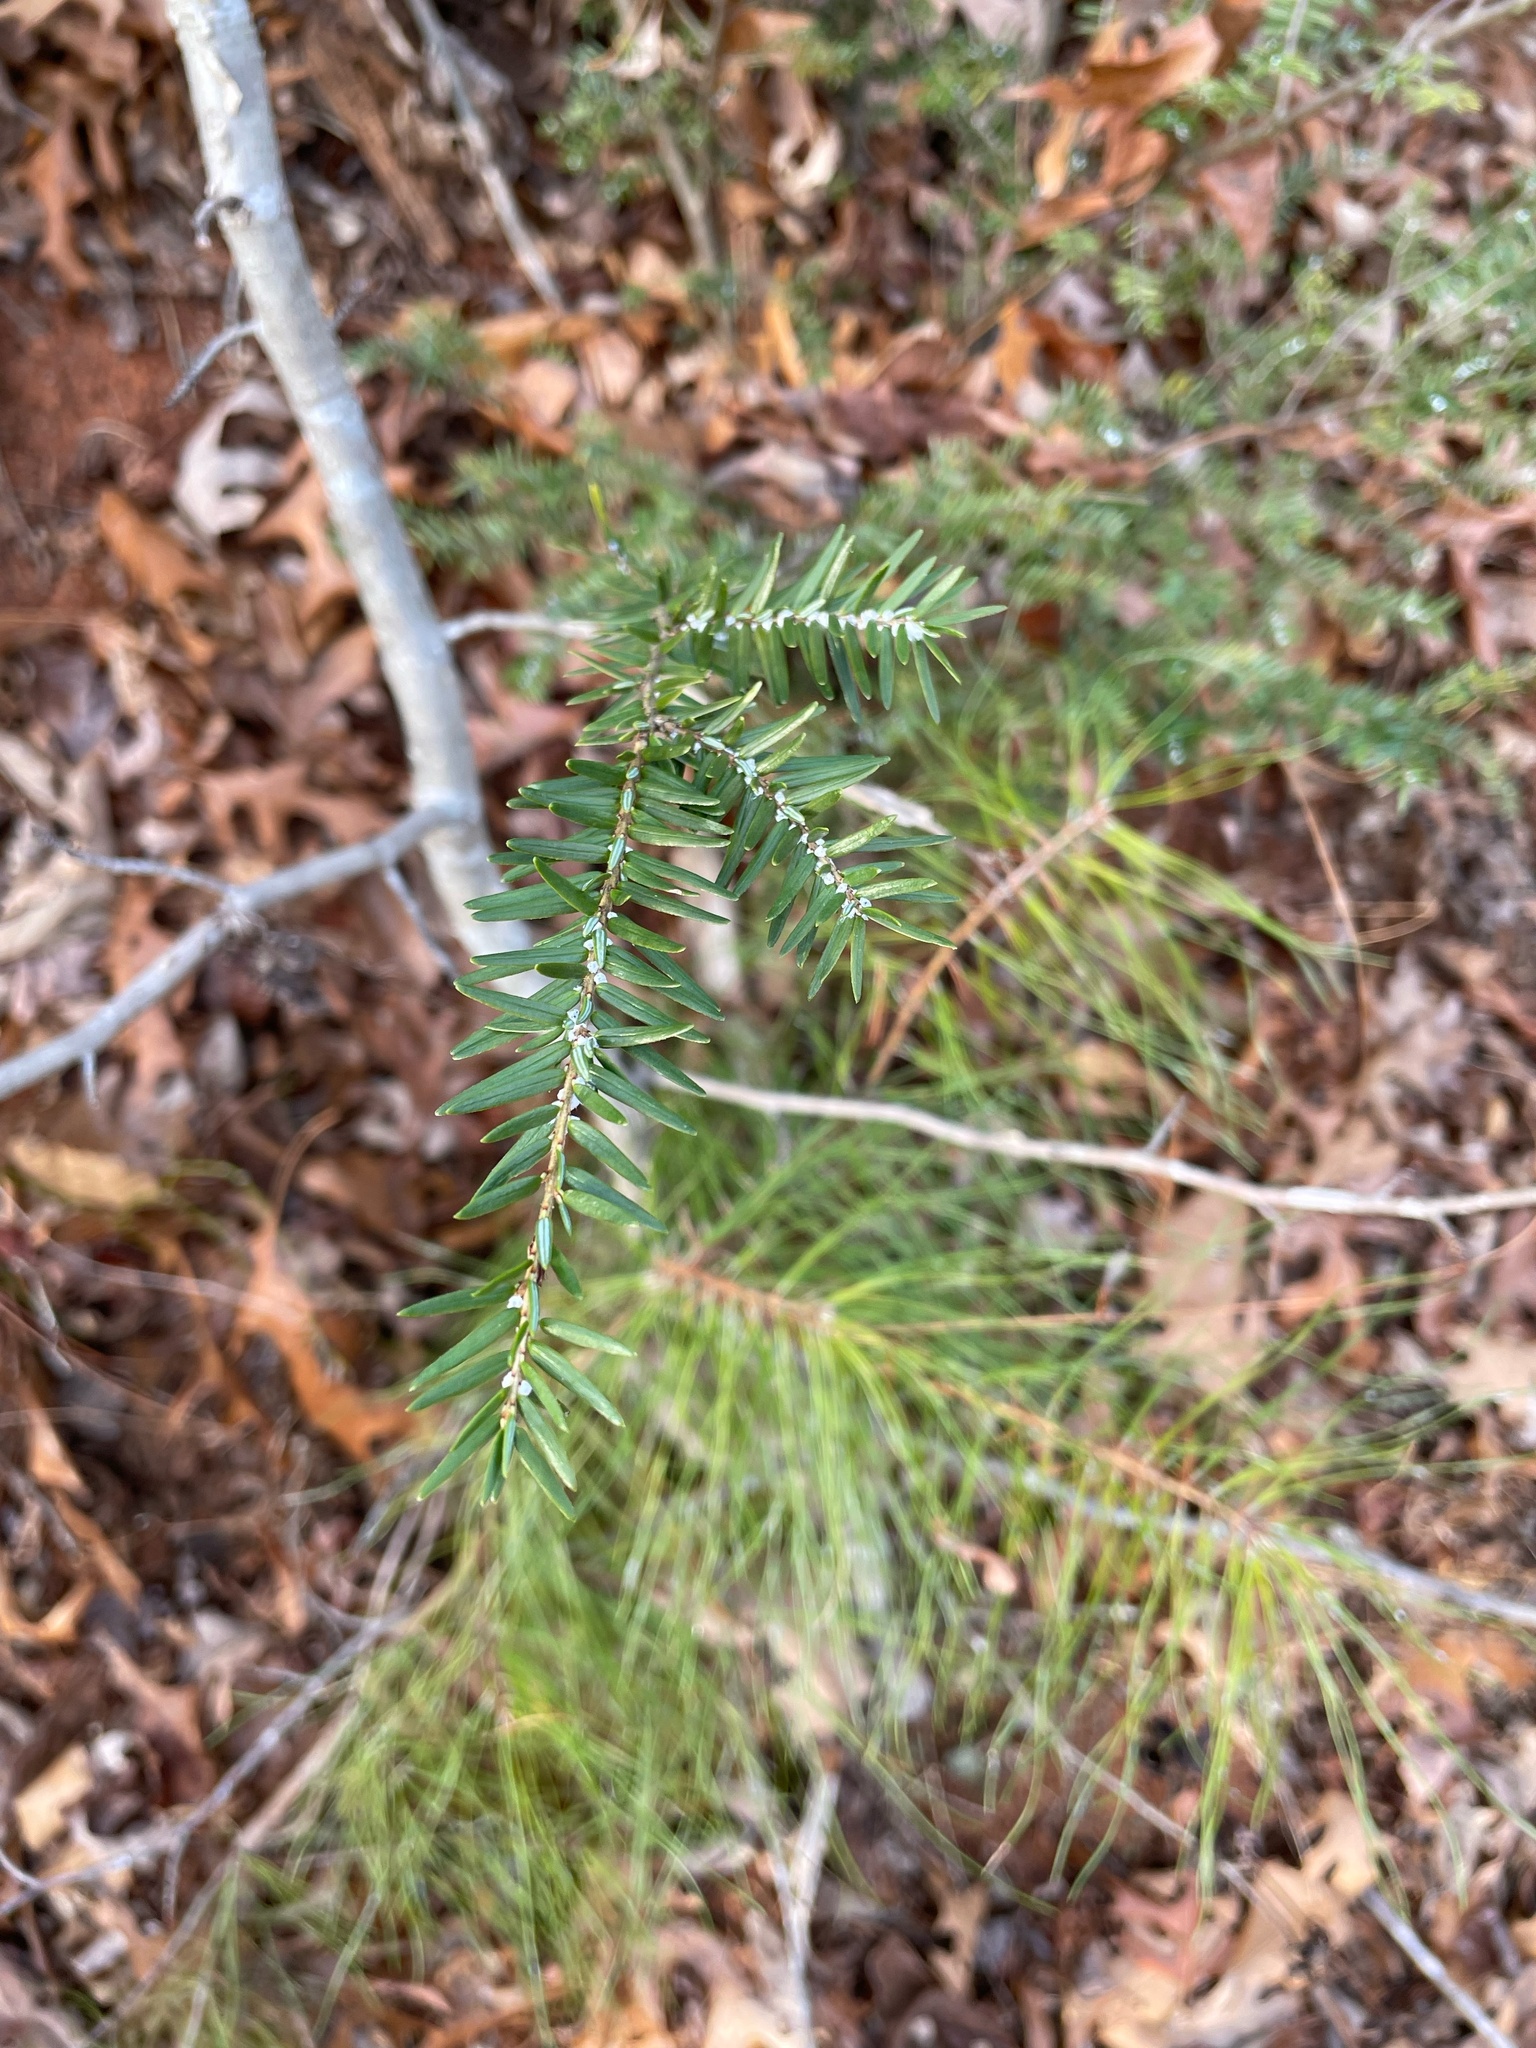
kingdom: Animalia
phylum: Arthropoda
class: Insecta
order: Hemiptera
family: Adelgidae
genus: Adelges
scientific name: Adelges tsugae
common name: Hemlock woolly adelgid
